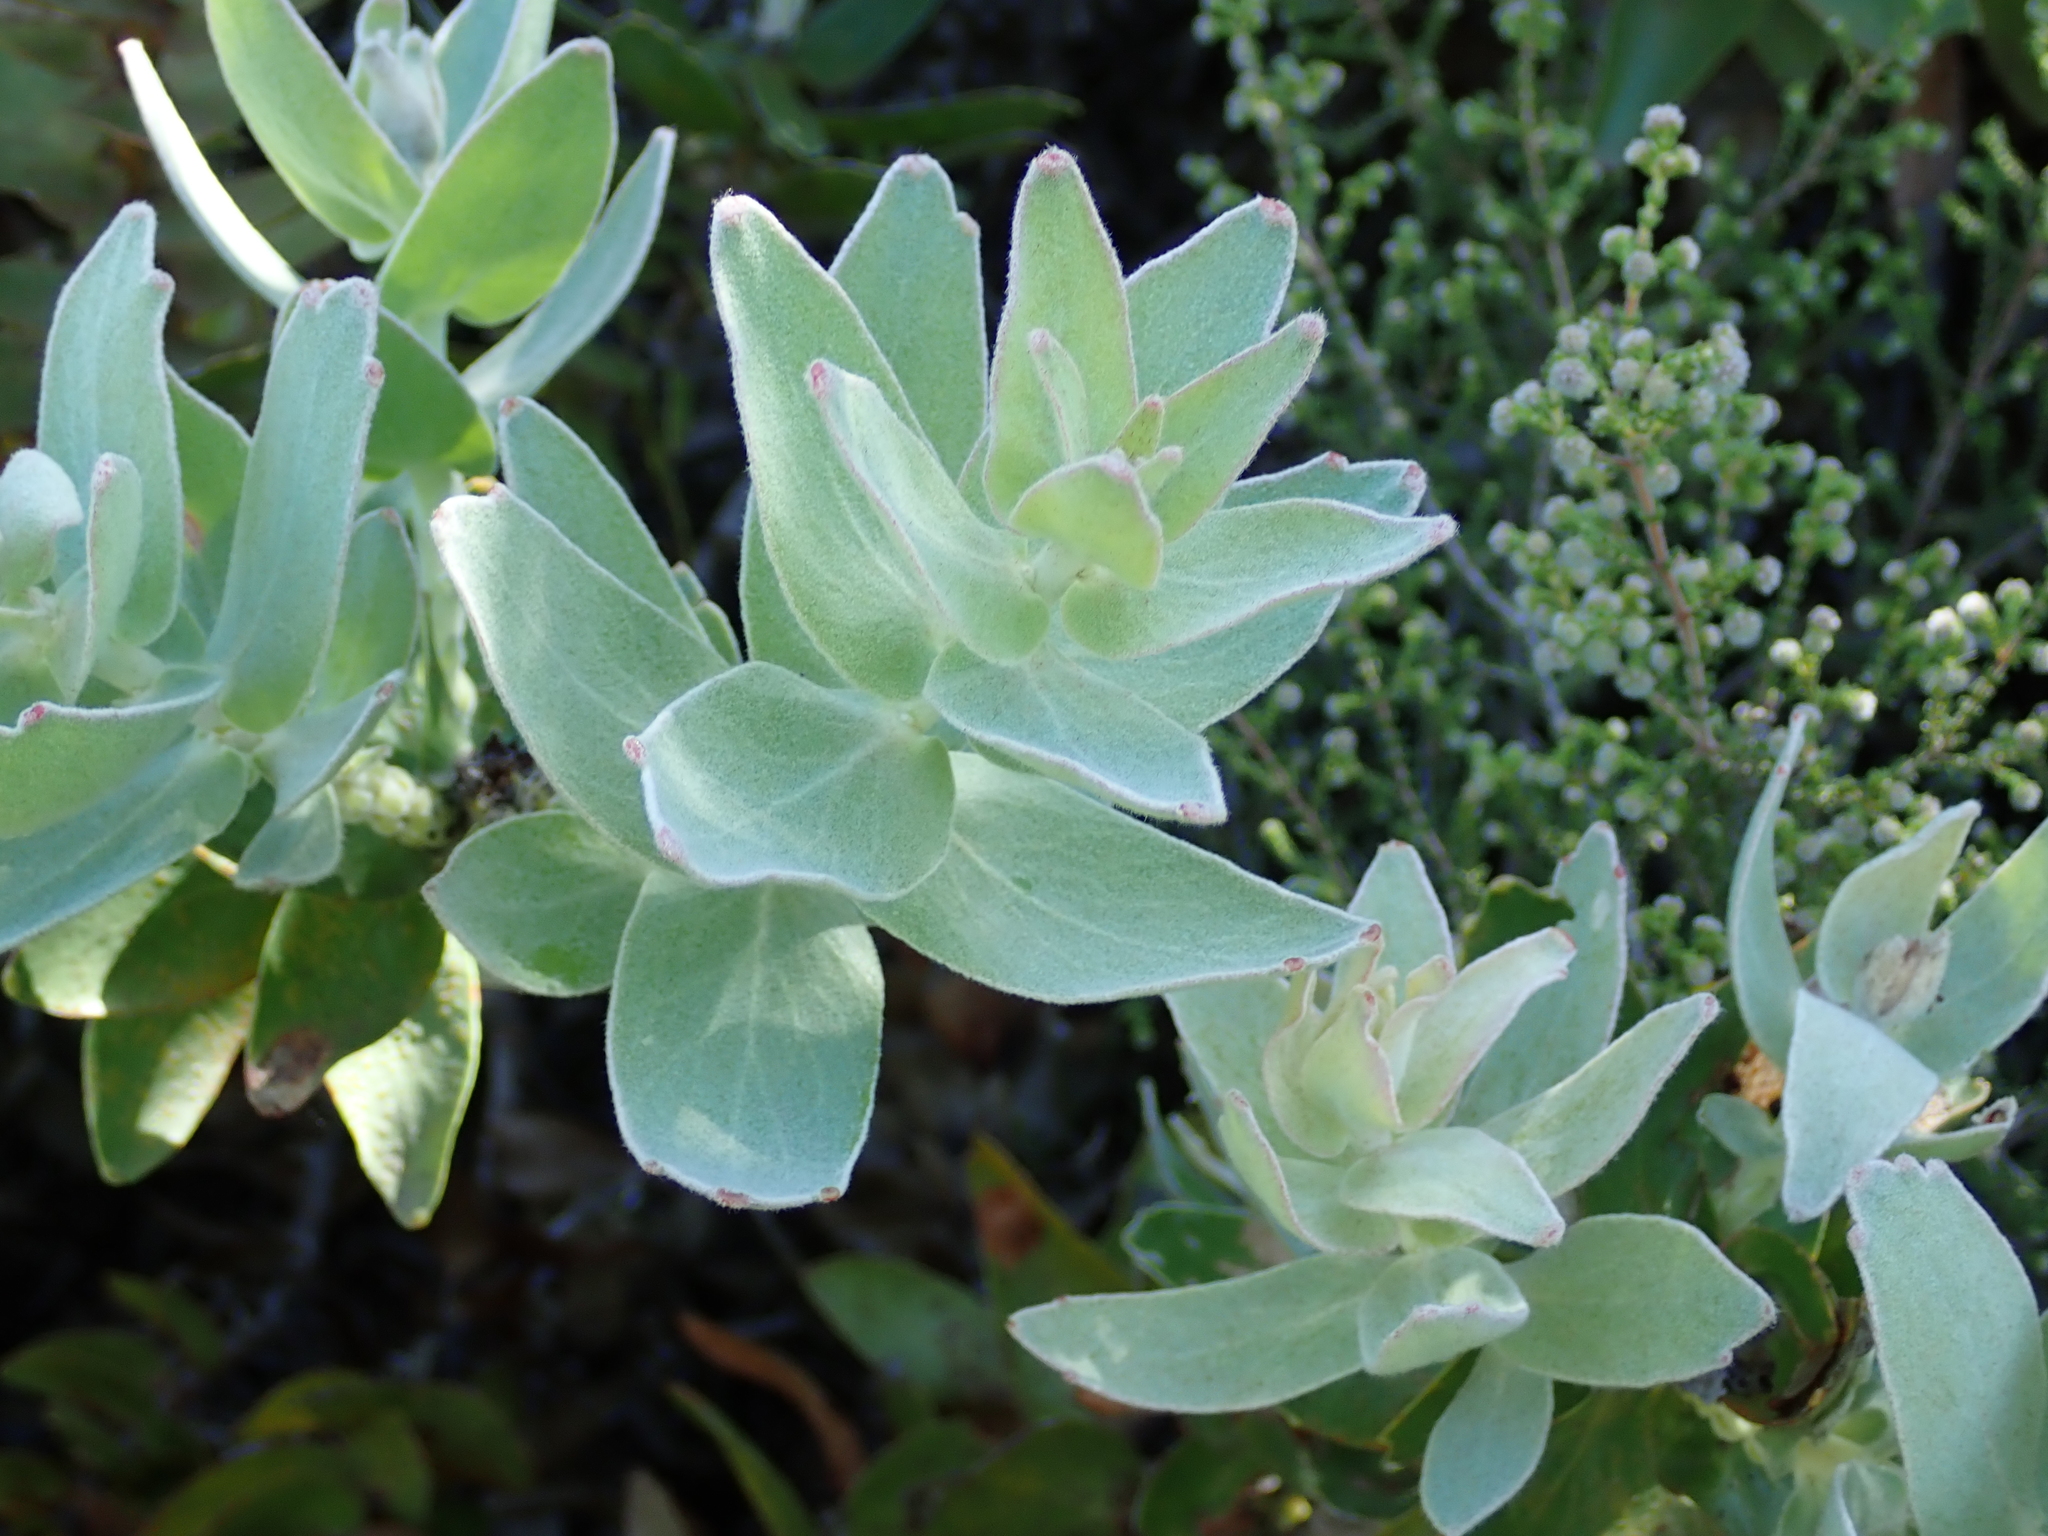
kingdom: Plantae
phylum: Tracheophyta
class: Magnoliopsida
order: Proteales
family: Proteaceae
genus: Leucospermum
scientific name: Leucospermum cordifolium
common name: Red pincushion-protea
